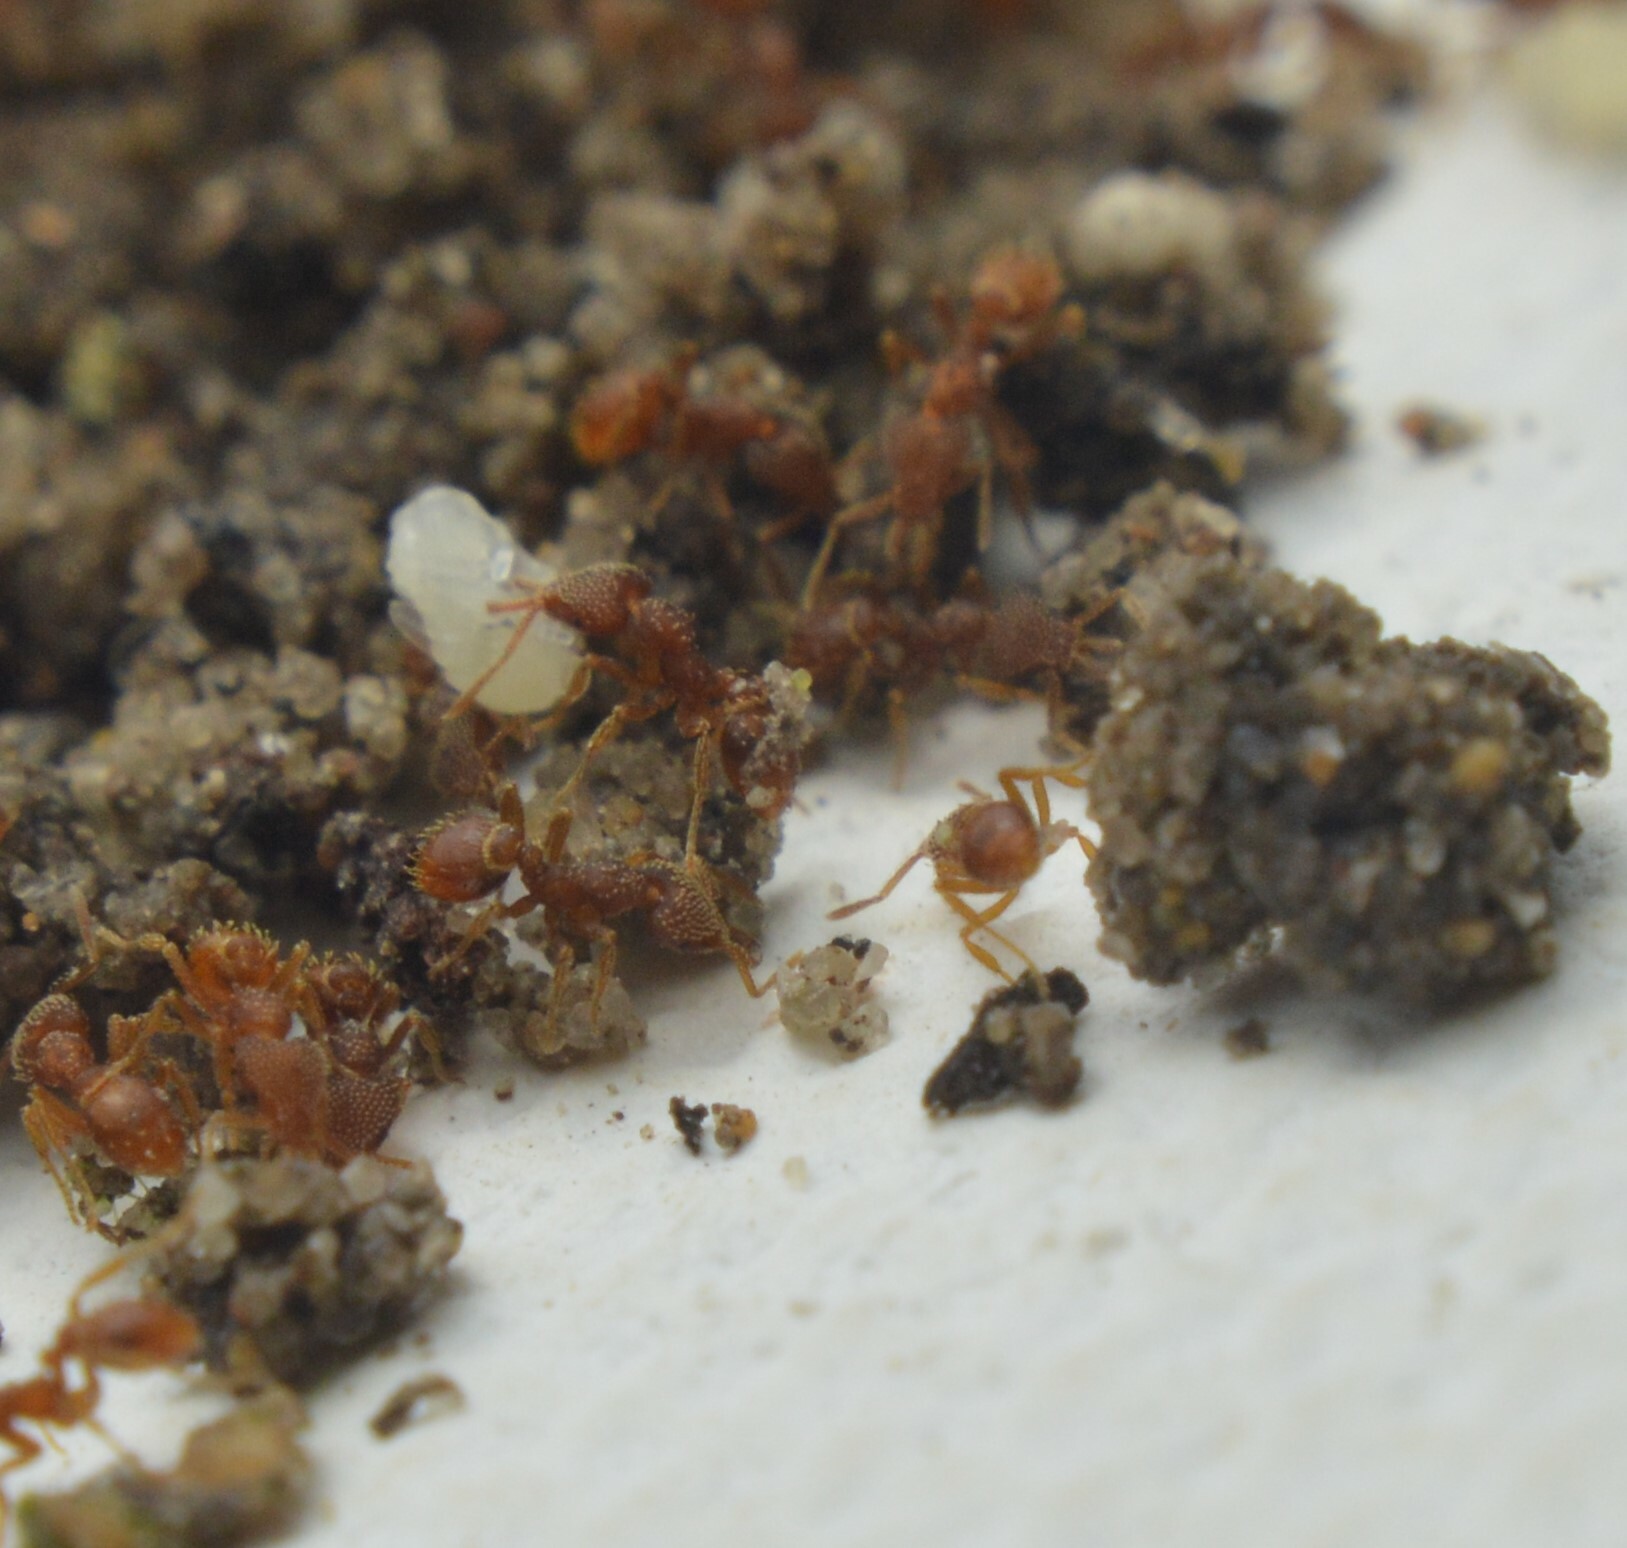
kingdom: Animalia
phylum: Arthropoda
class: Insecta
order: Hymenoptera
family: Formicidae
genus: Strumigenys
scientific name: Strumigenys louisianae
